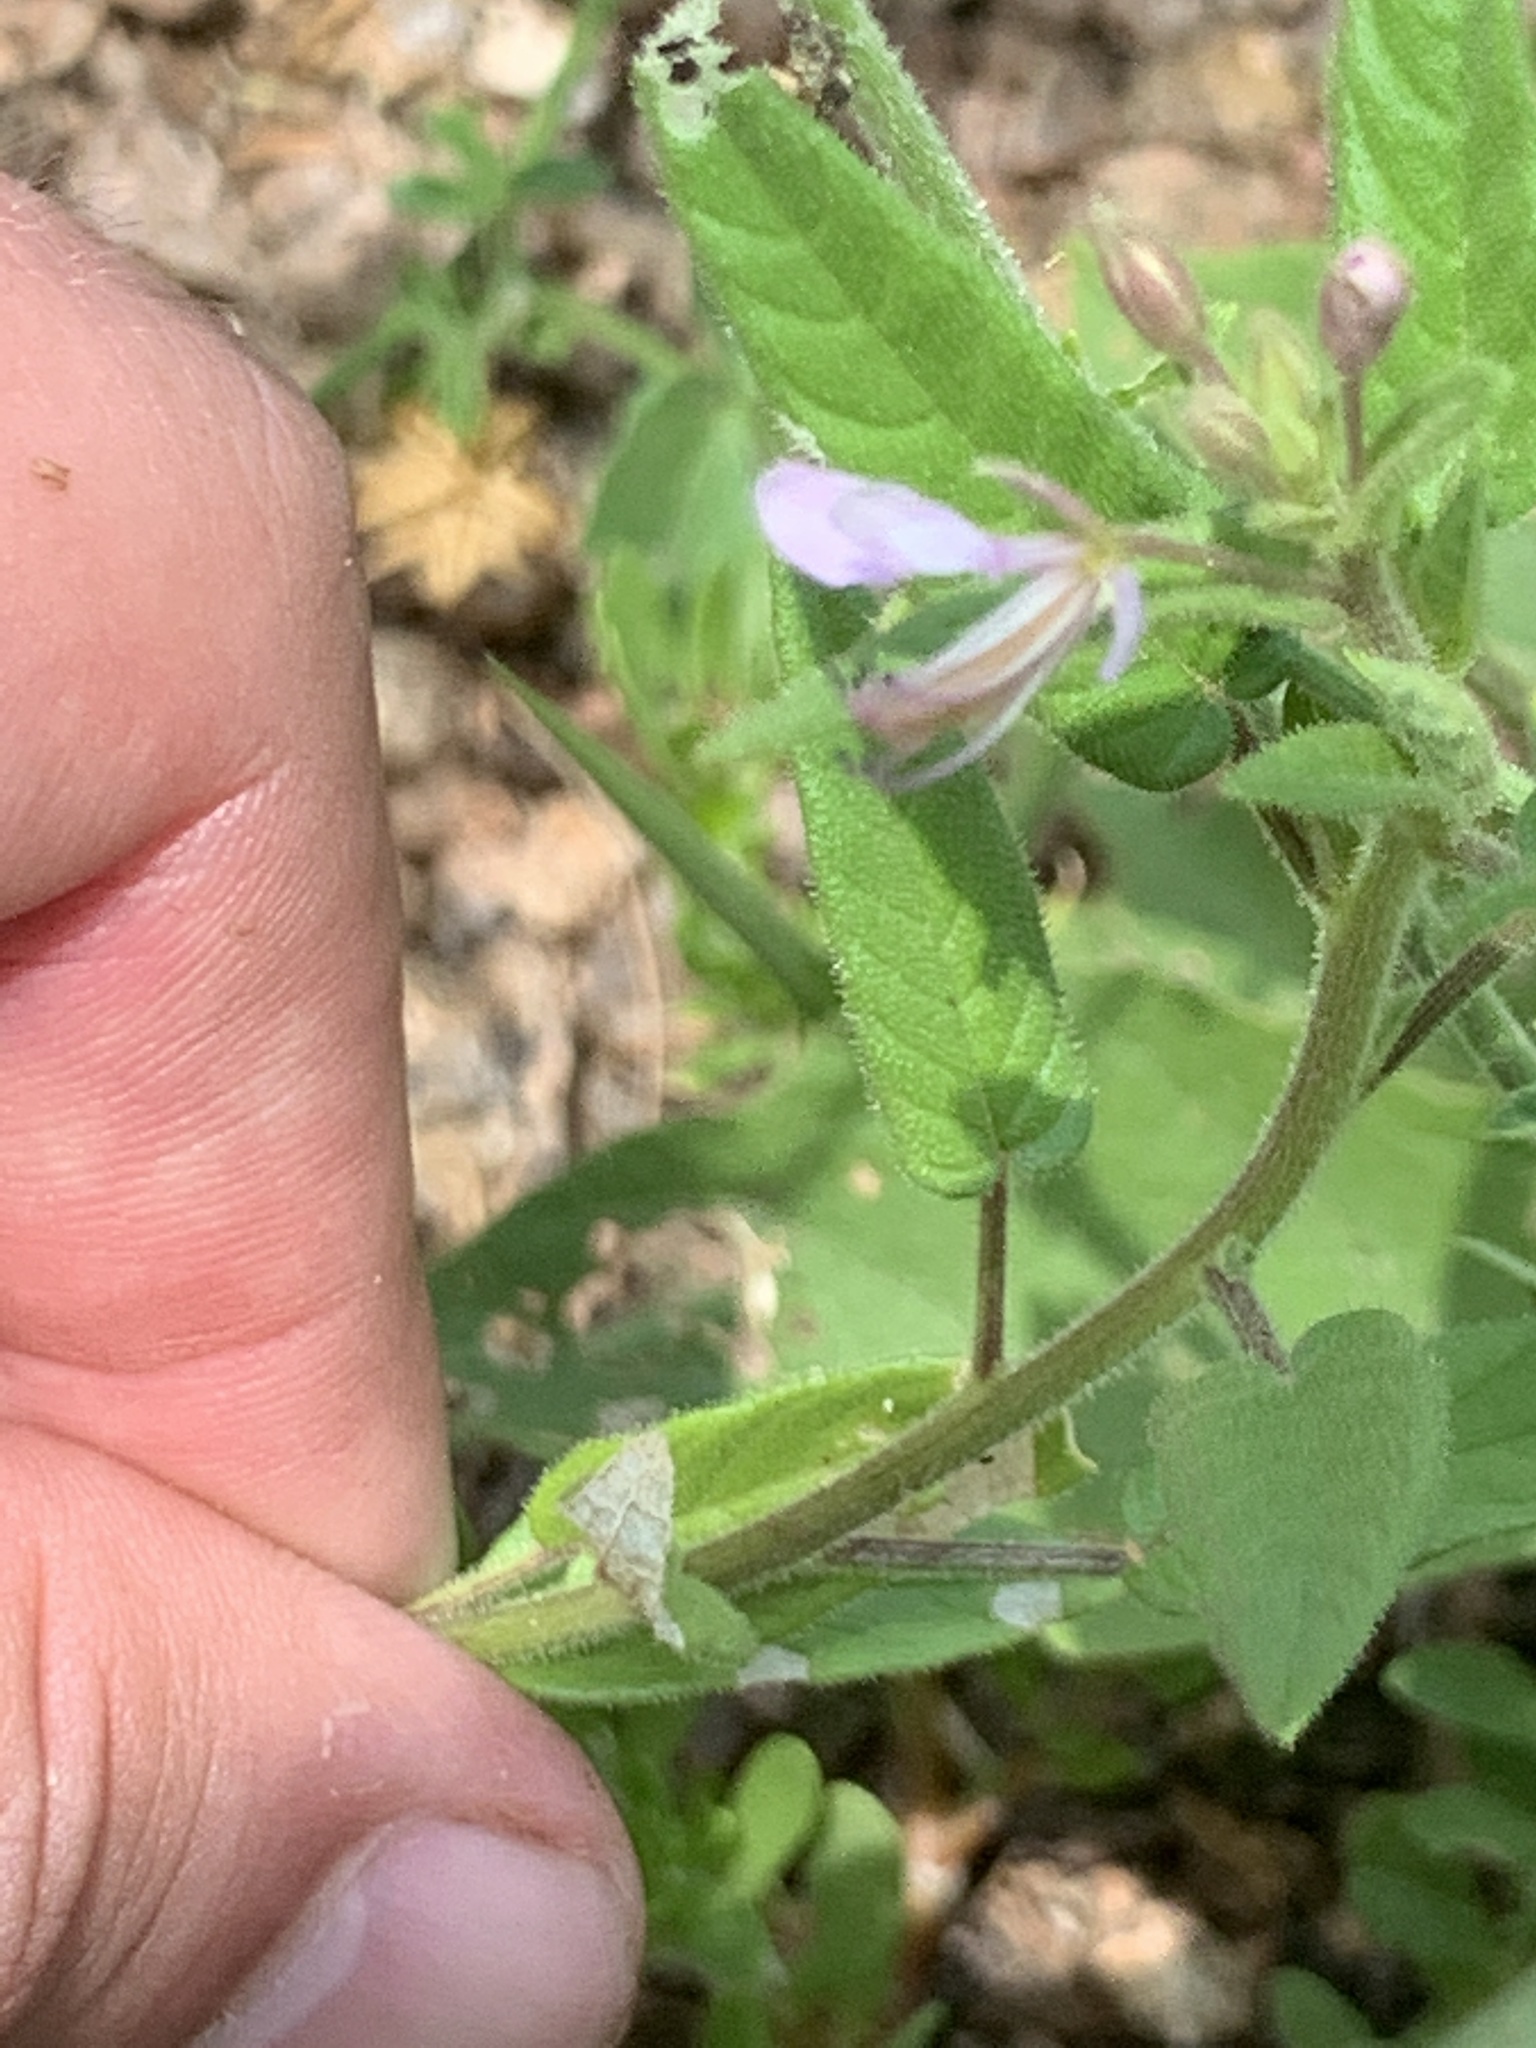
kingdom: Plantae
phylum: Tracheophyta
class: Magnoliopsida
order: Brassicales
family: Cleomaceae
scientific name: Cleomaceae
